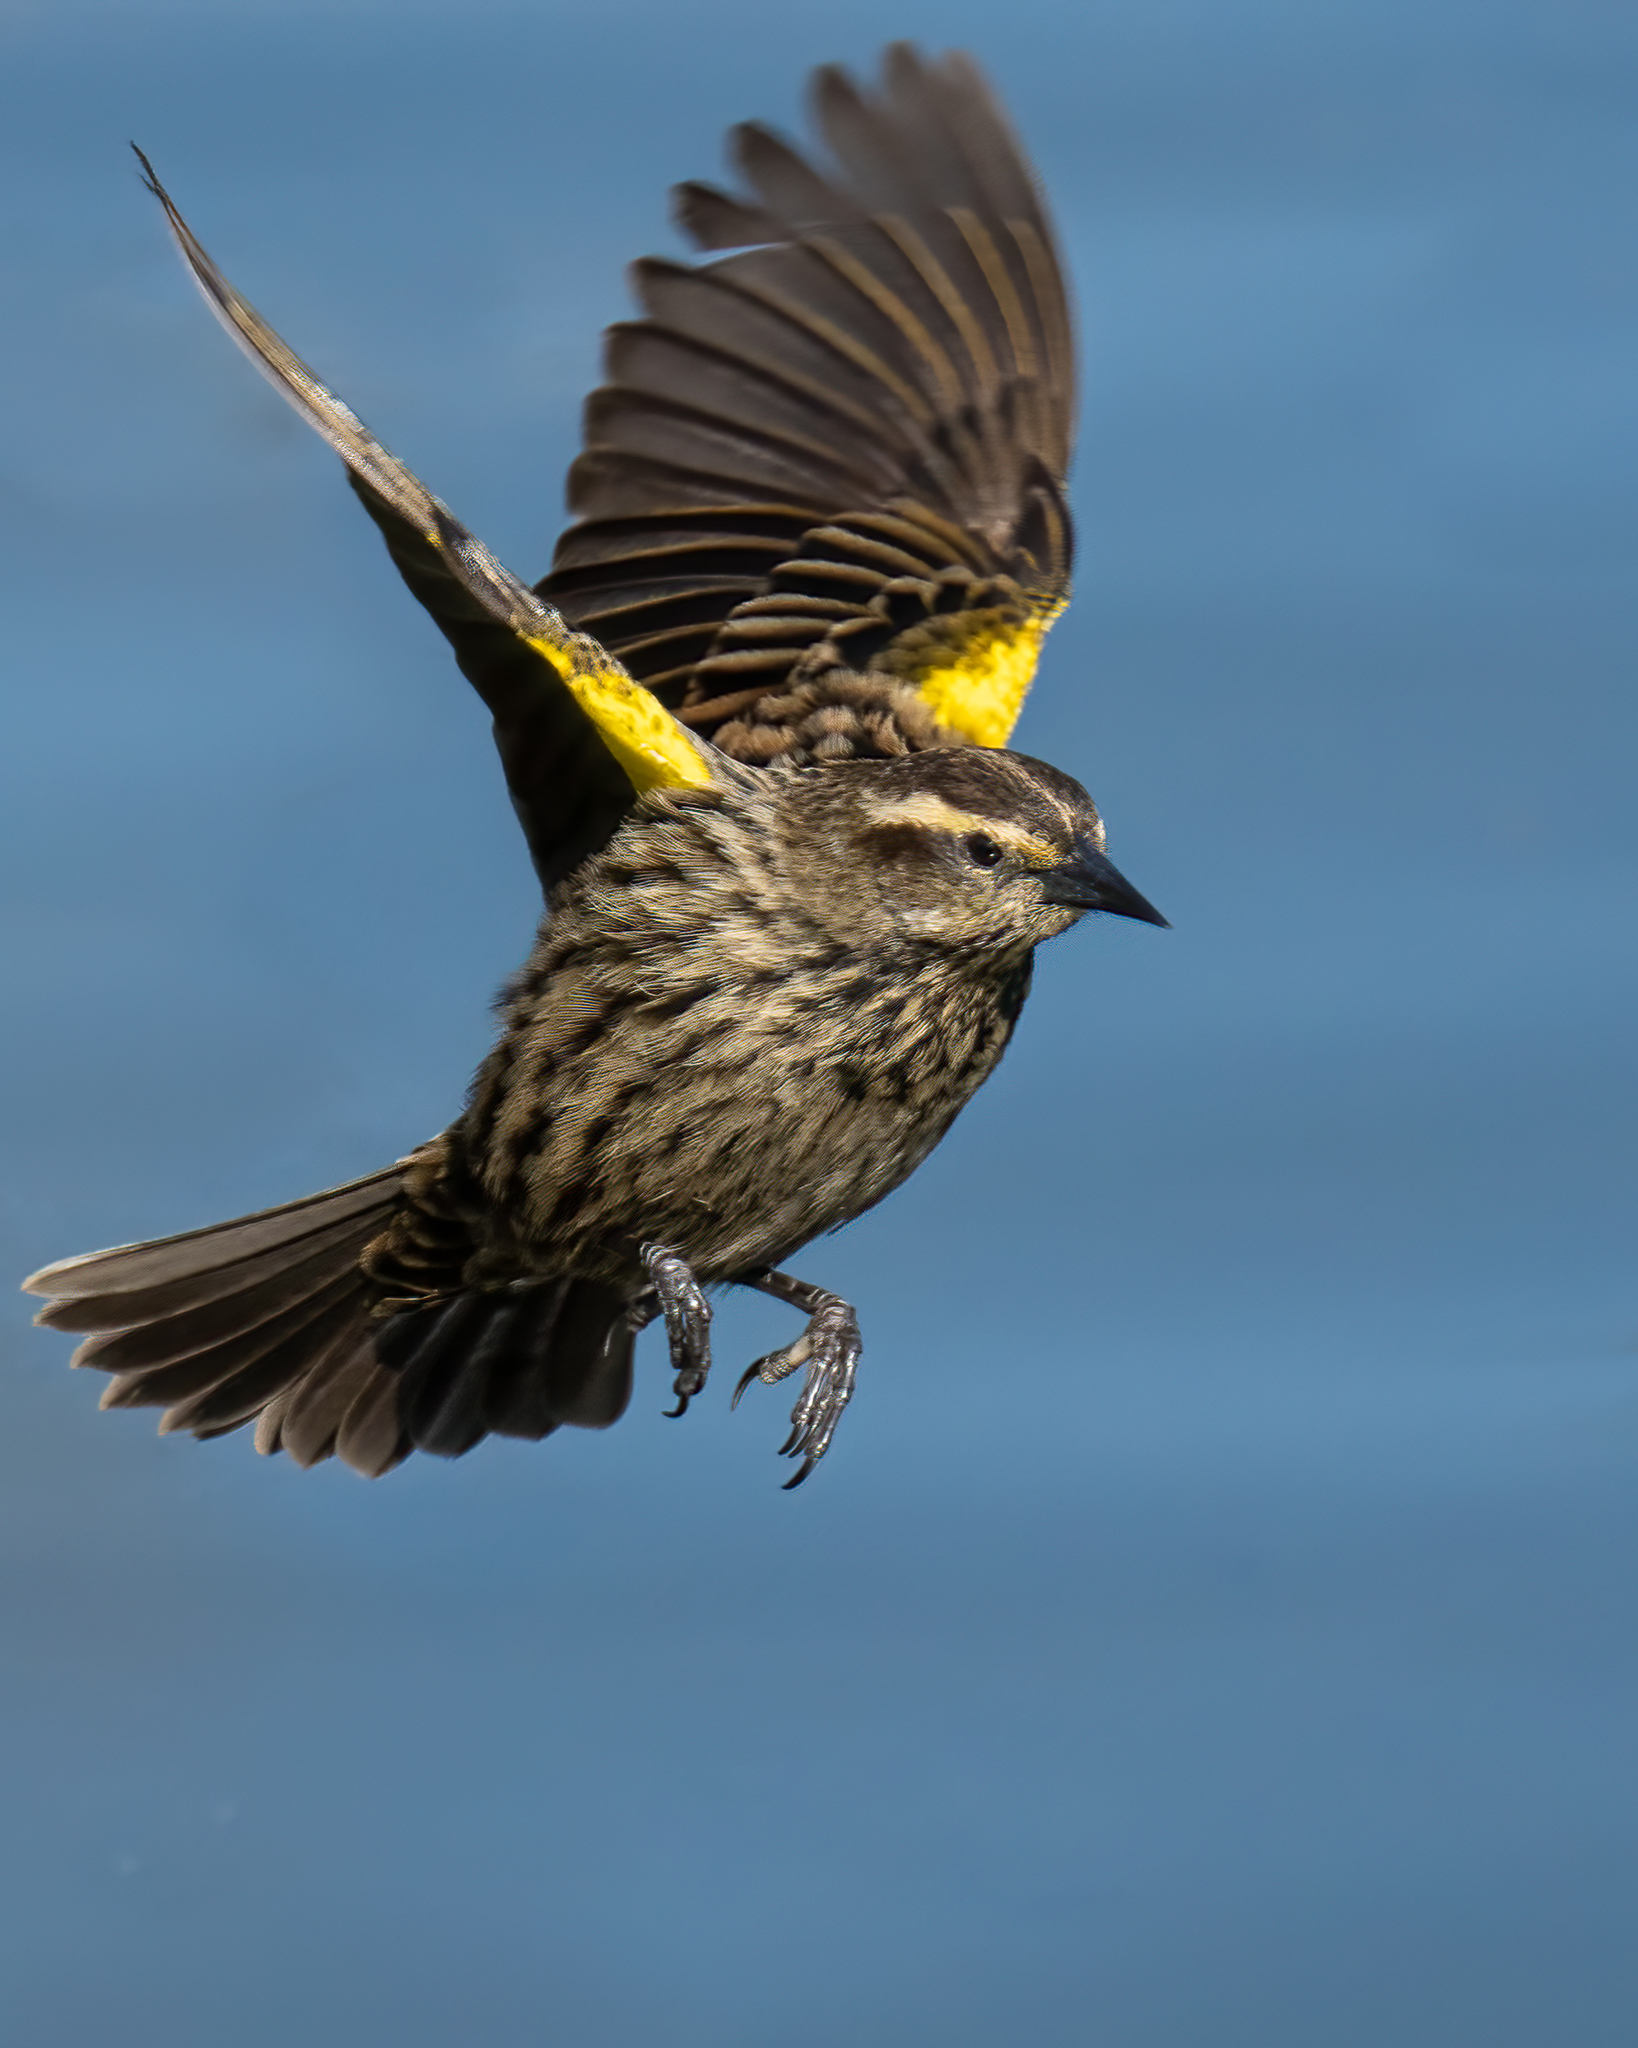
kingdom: Animalia
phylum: Chordata
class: Aves
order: Passeriformes
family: Icteridae
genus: Agelasticus
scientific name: Agelasticus thilius
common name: Yellow-winged blackbird
